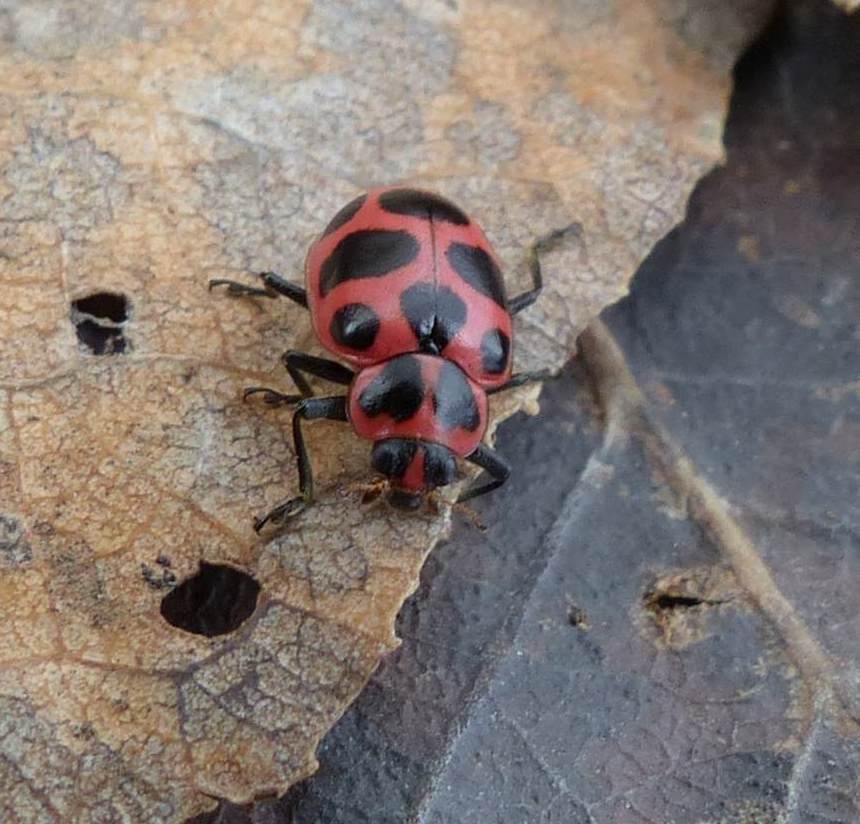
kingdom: Animalia
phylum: Arthropoda
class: Insecta
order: Coleoptera
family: Coccinellidae
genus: Coleomegilla
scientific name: Coleomegilla maculata
